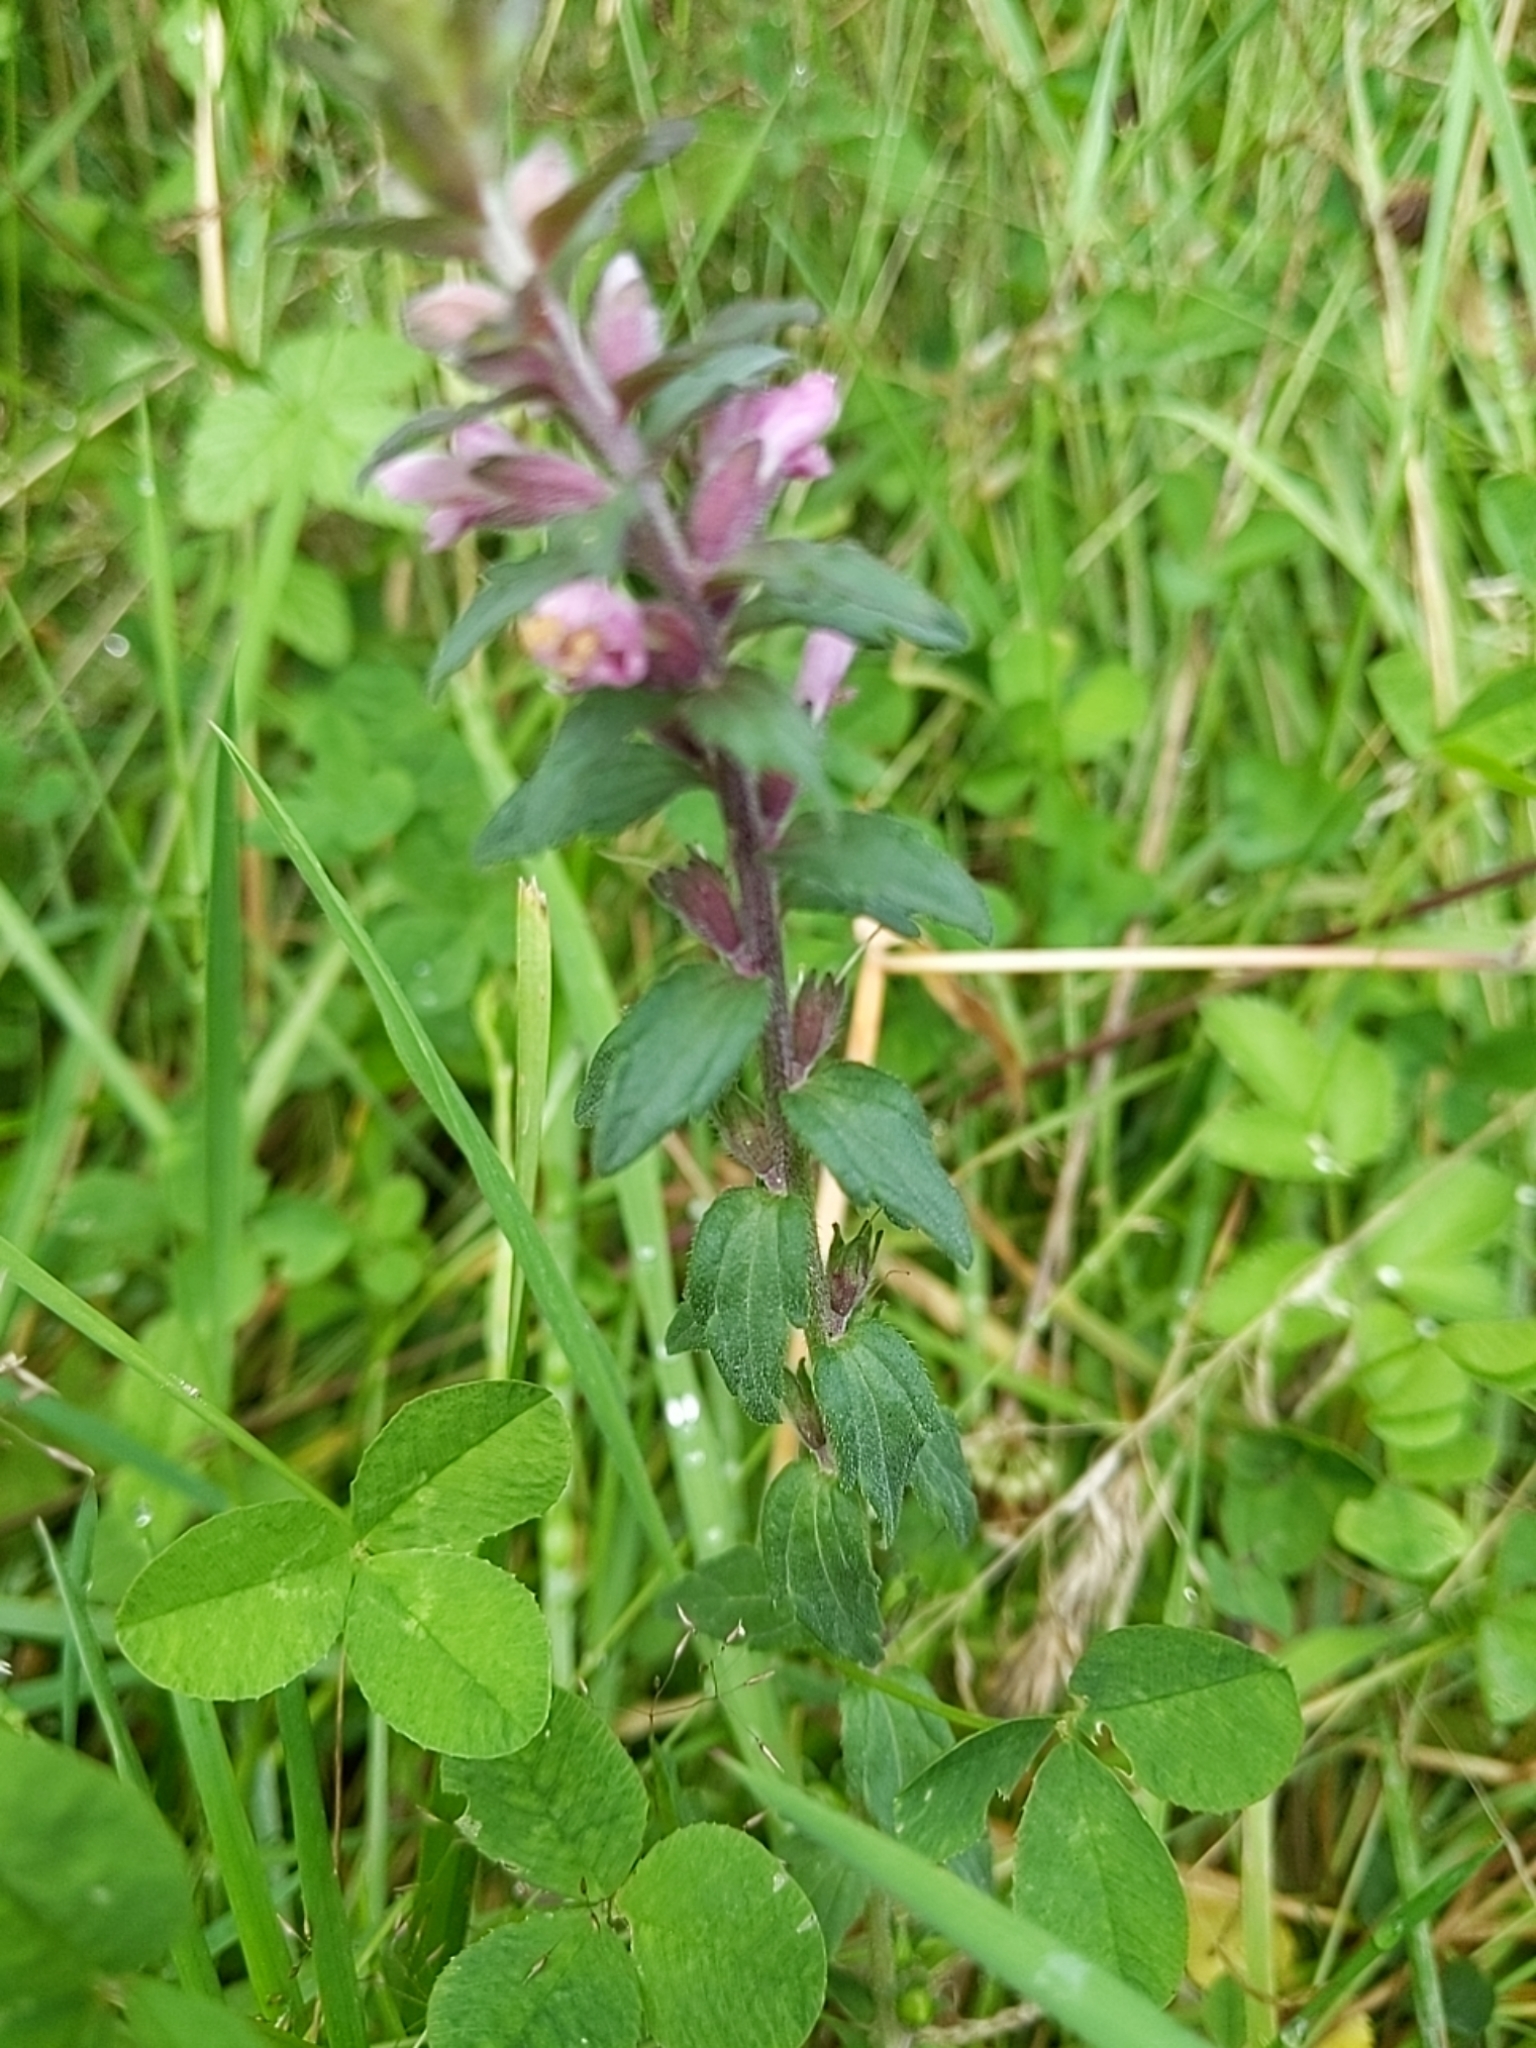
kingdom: Plantae
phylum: Tracheophyta
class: Magnoliopsida
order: Lamiales
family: Orobanchaceae
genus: Odontites
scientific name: Odontites vernus
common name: Red bartsia
